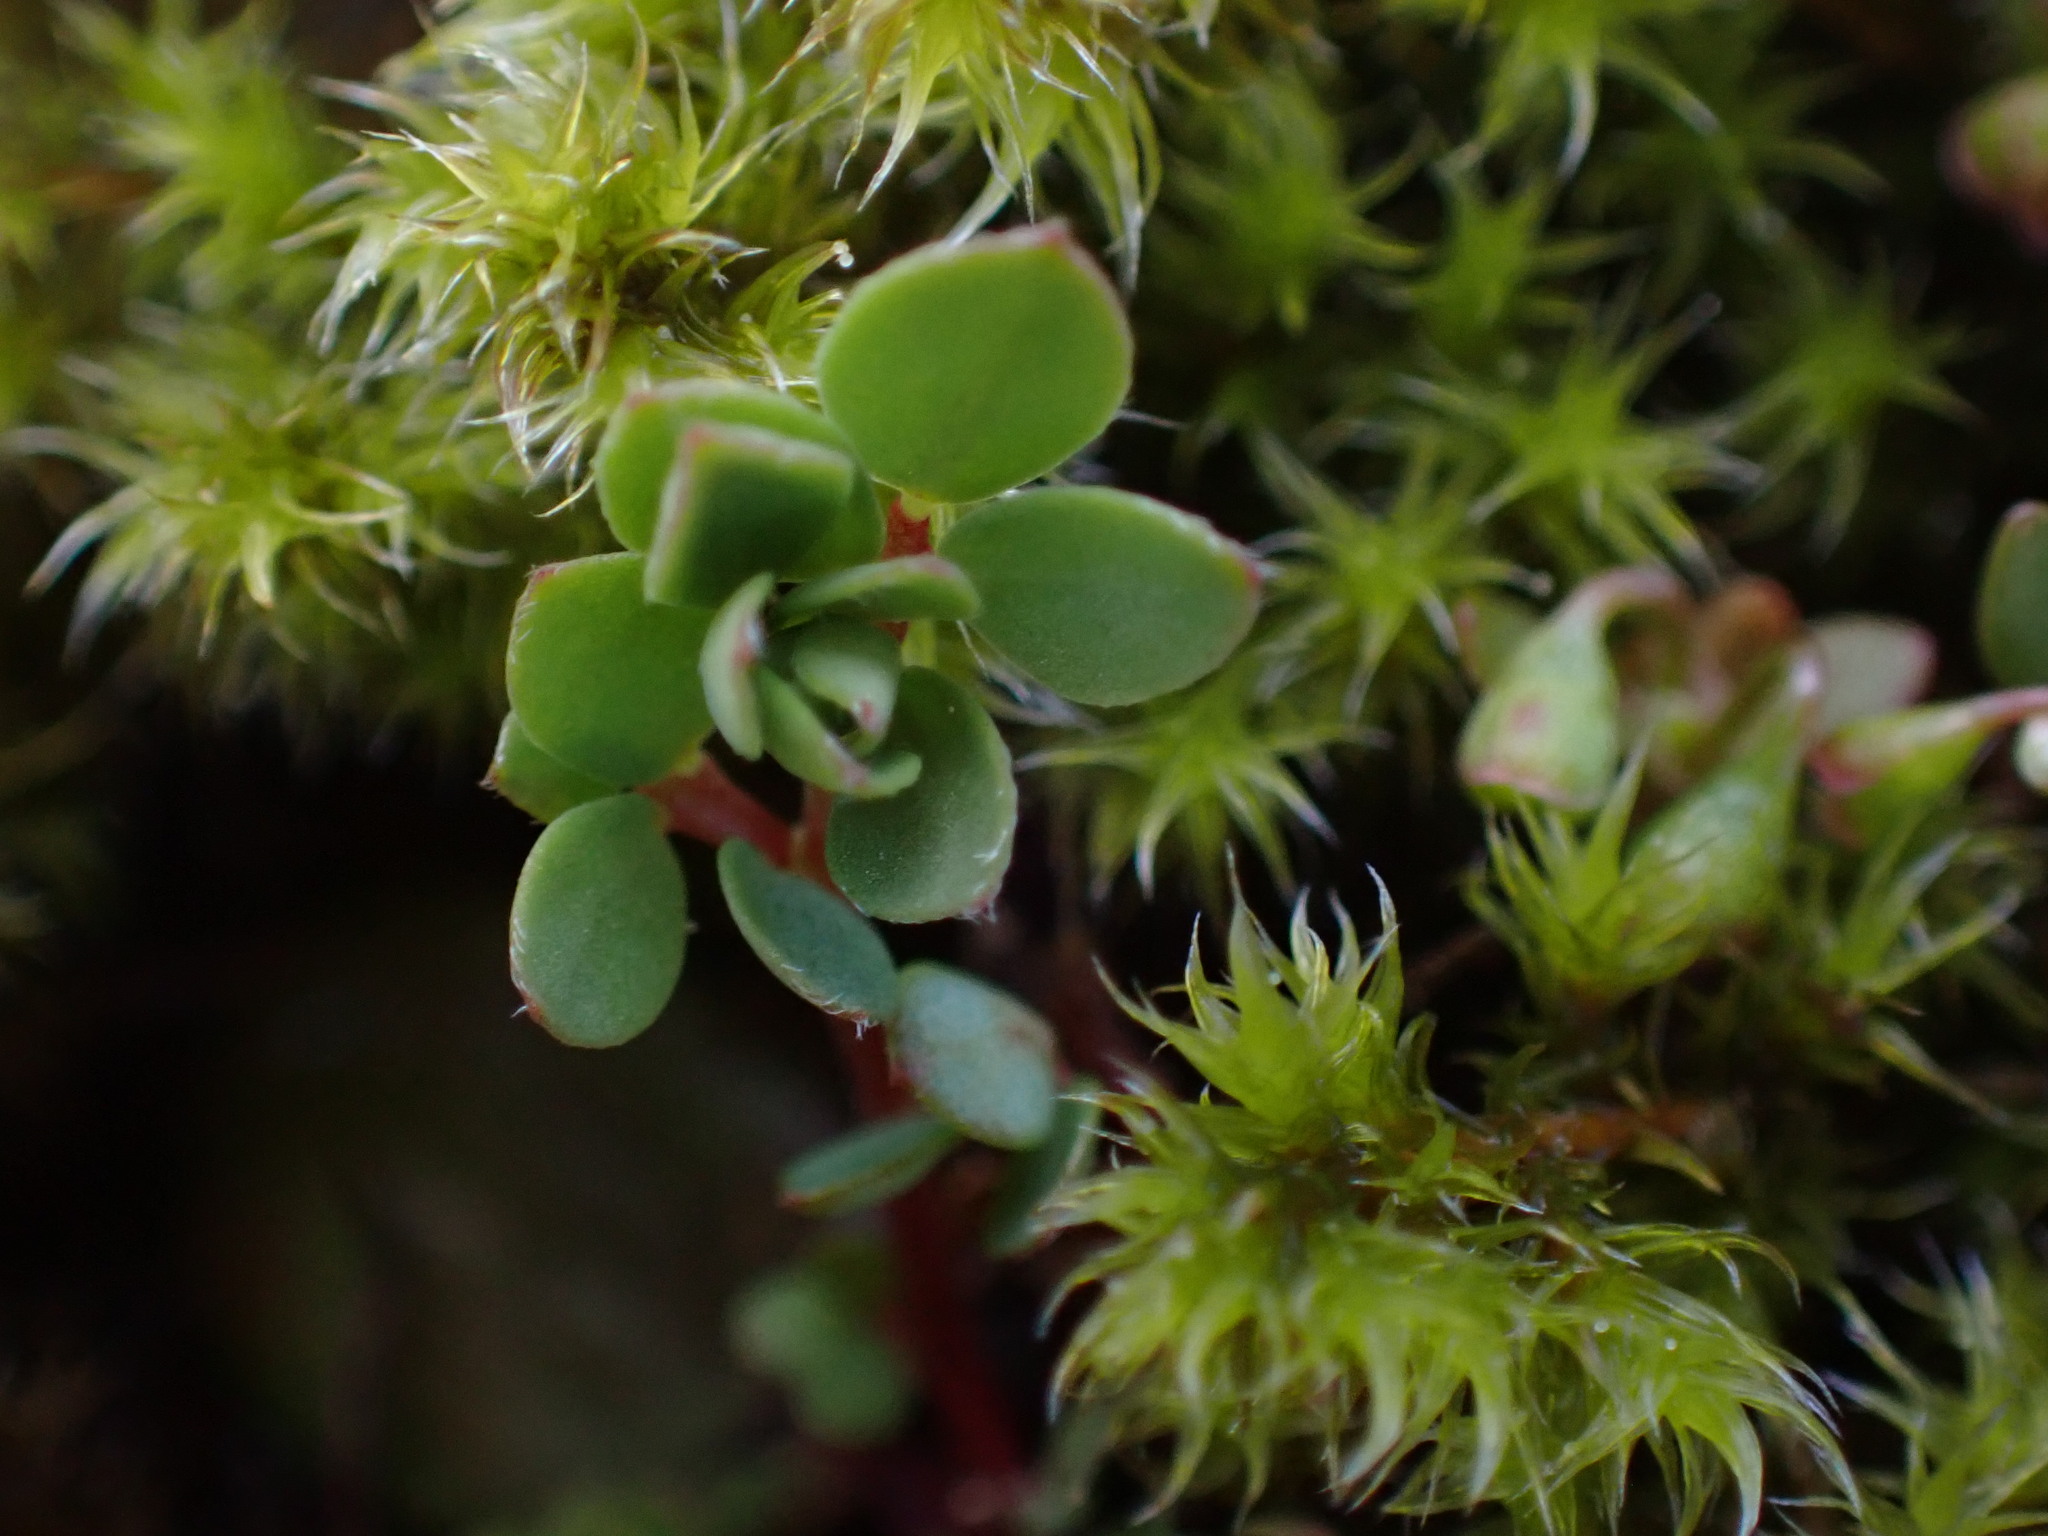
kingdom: Plantae
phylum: Tracheophyta
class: Magnoliopsida
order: Fabales
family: Fabaceae
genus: Acmispon
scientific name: Acmispon parviflorus
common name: Desert deer-vetch
